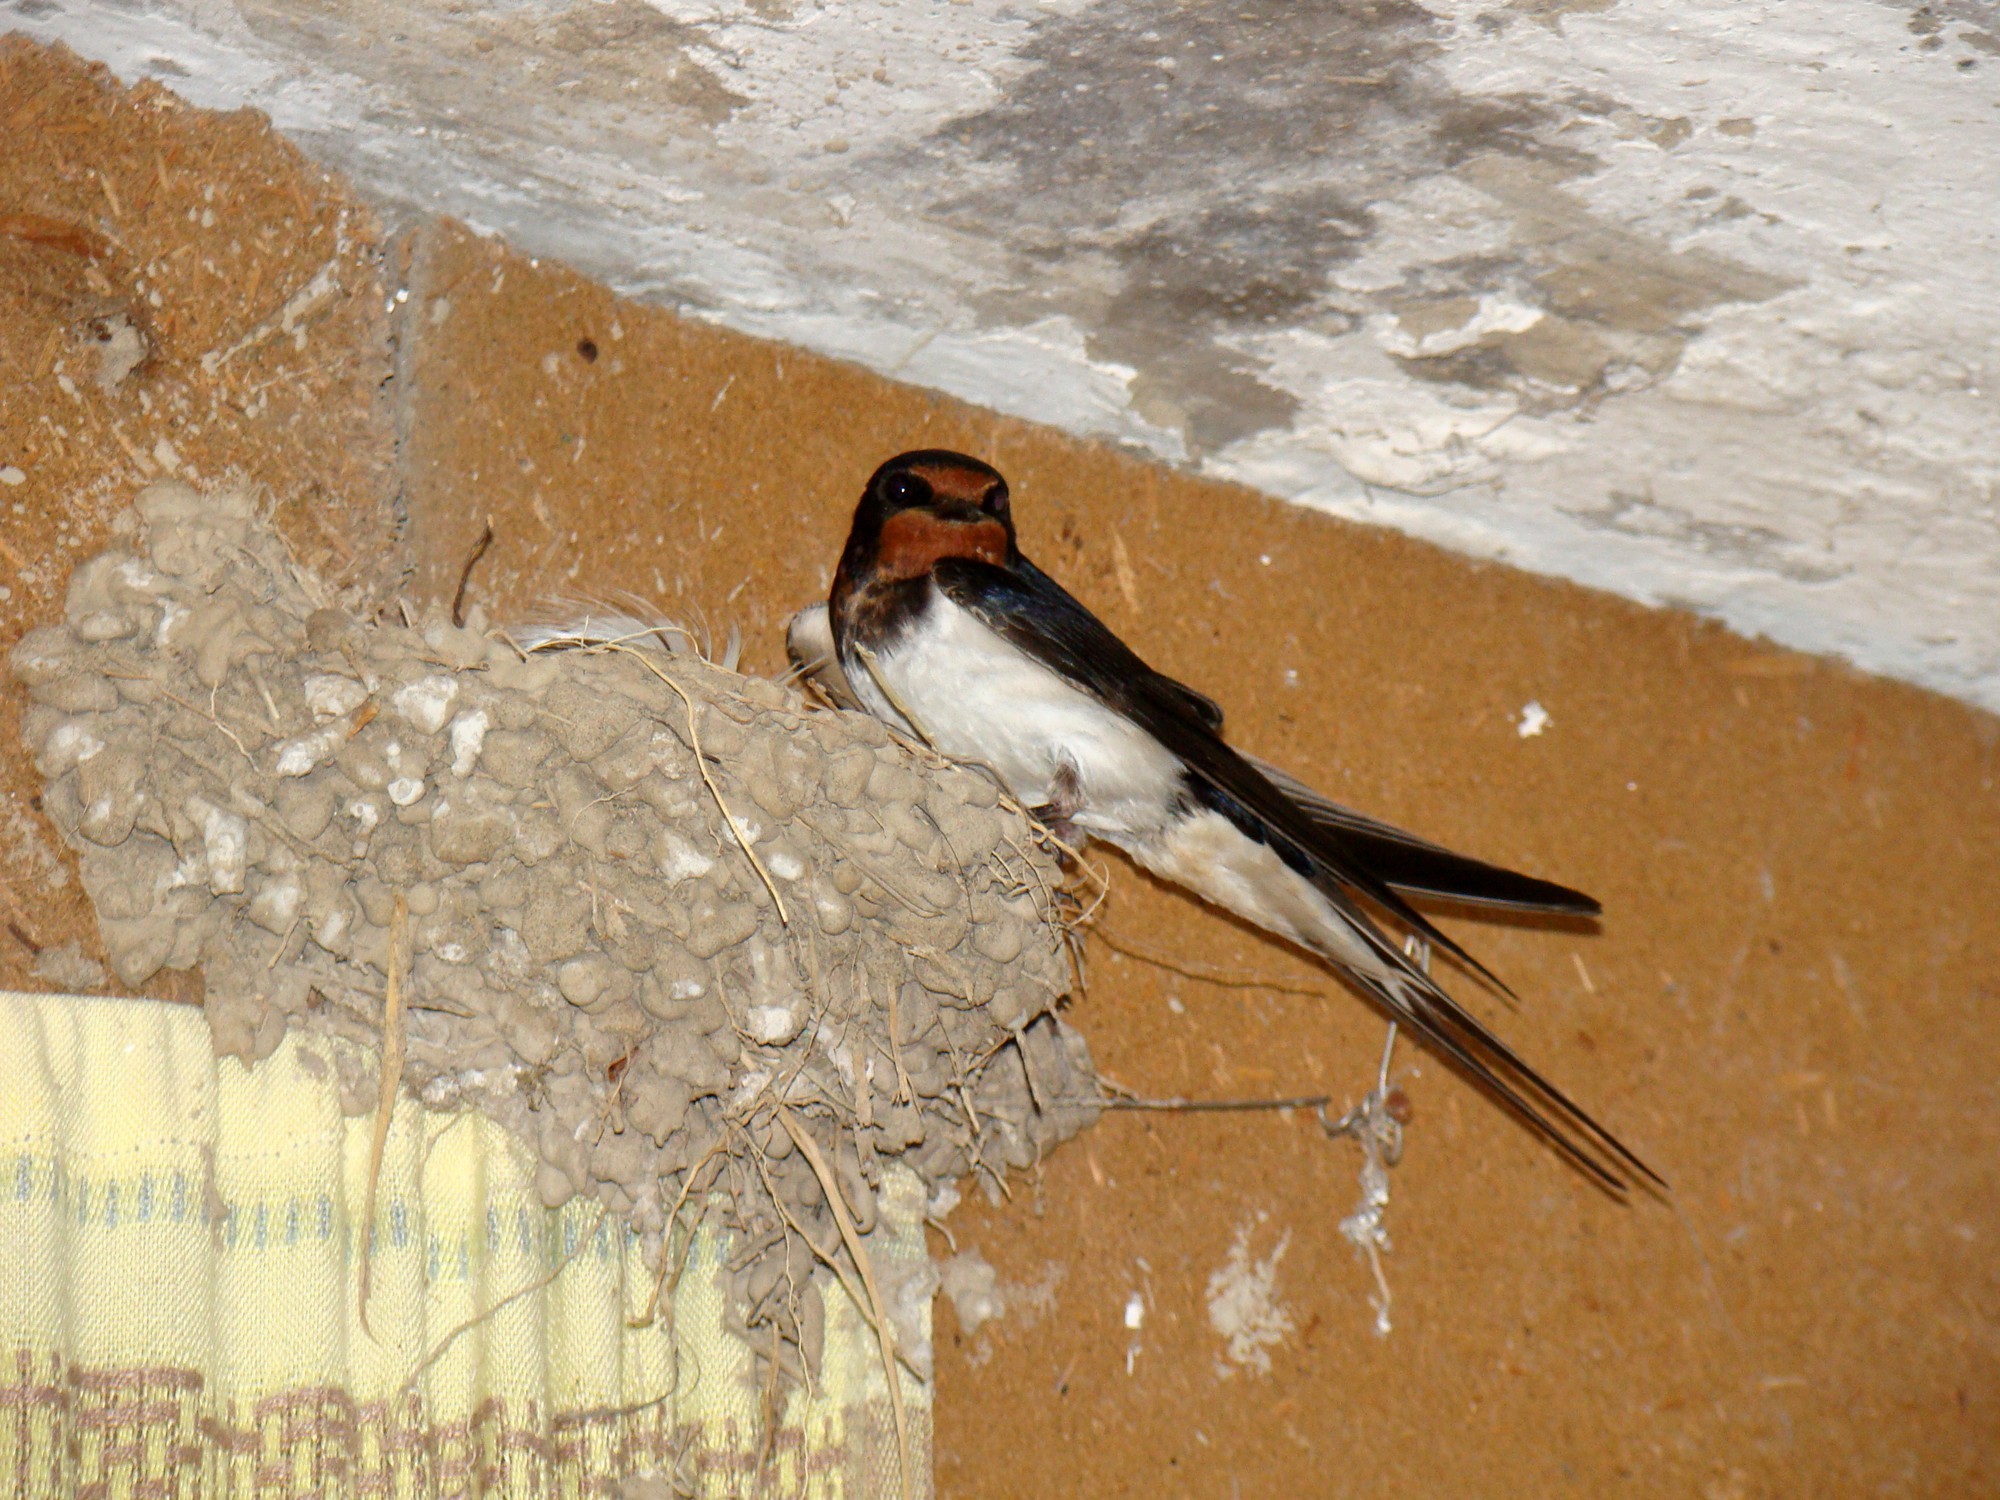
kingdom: Animalia
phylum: Chordata
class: Aves
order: Passeriformes
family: Hirundinidae
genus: Hirundo
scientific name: Hirundo rustica
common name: Barn swallow
